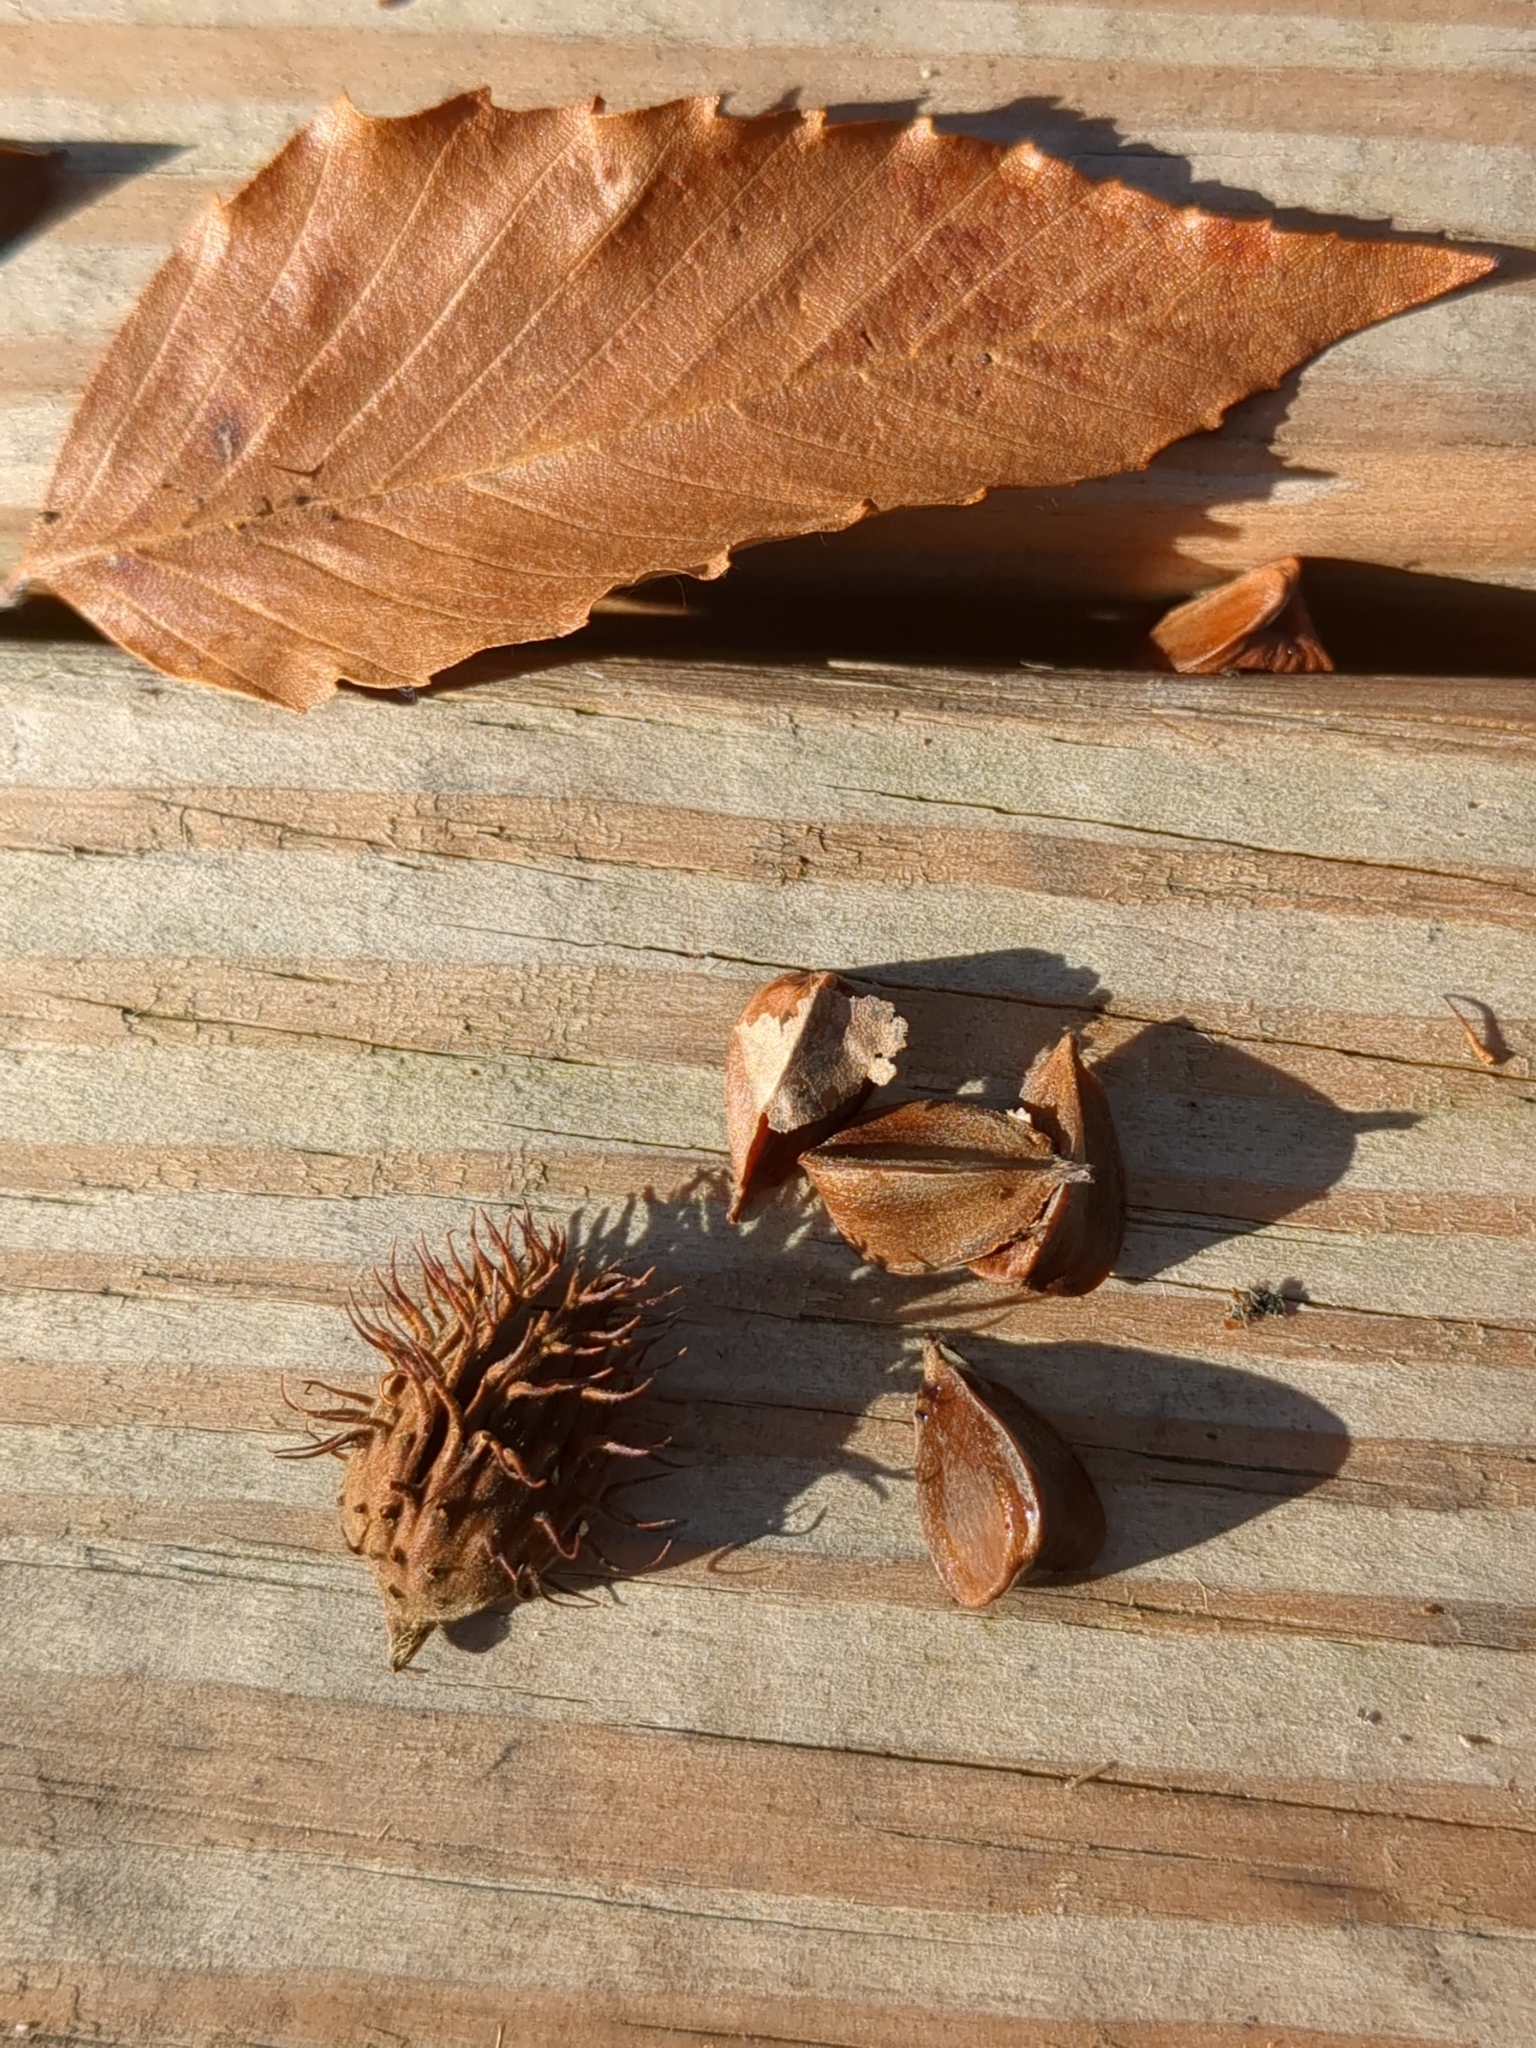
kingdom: Plantae
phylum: Tracheophyta
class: Magnoliopsida
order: Fagales
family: Fagaceae
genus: Fagus
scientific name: Fagus grandifolia
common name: American beech
